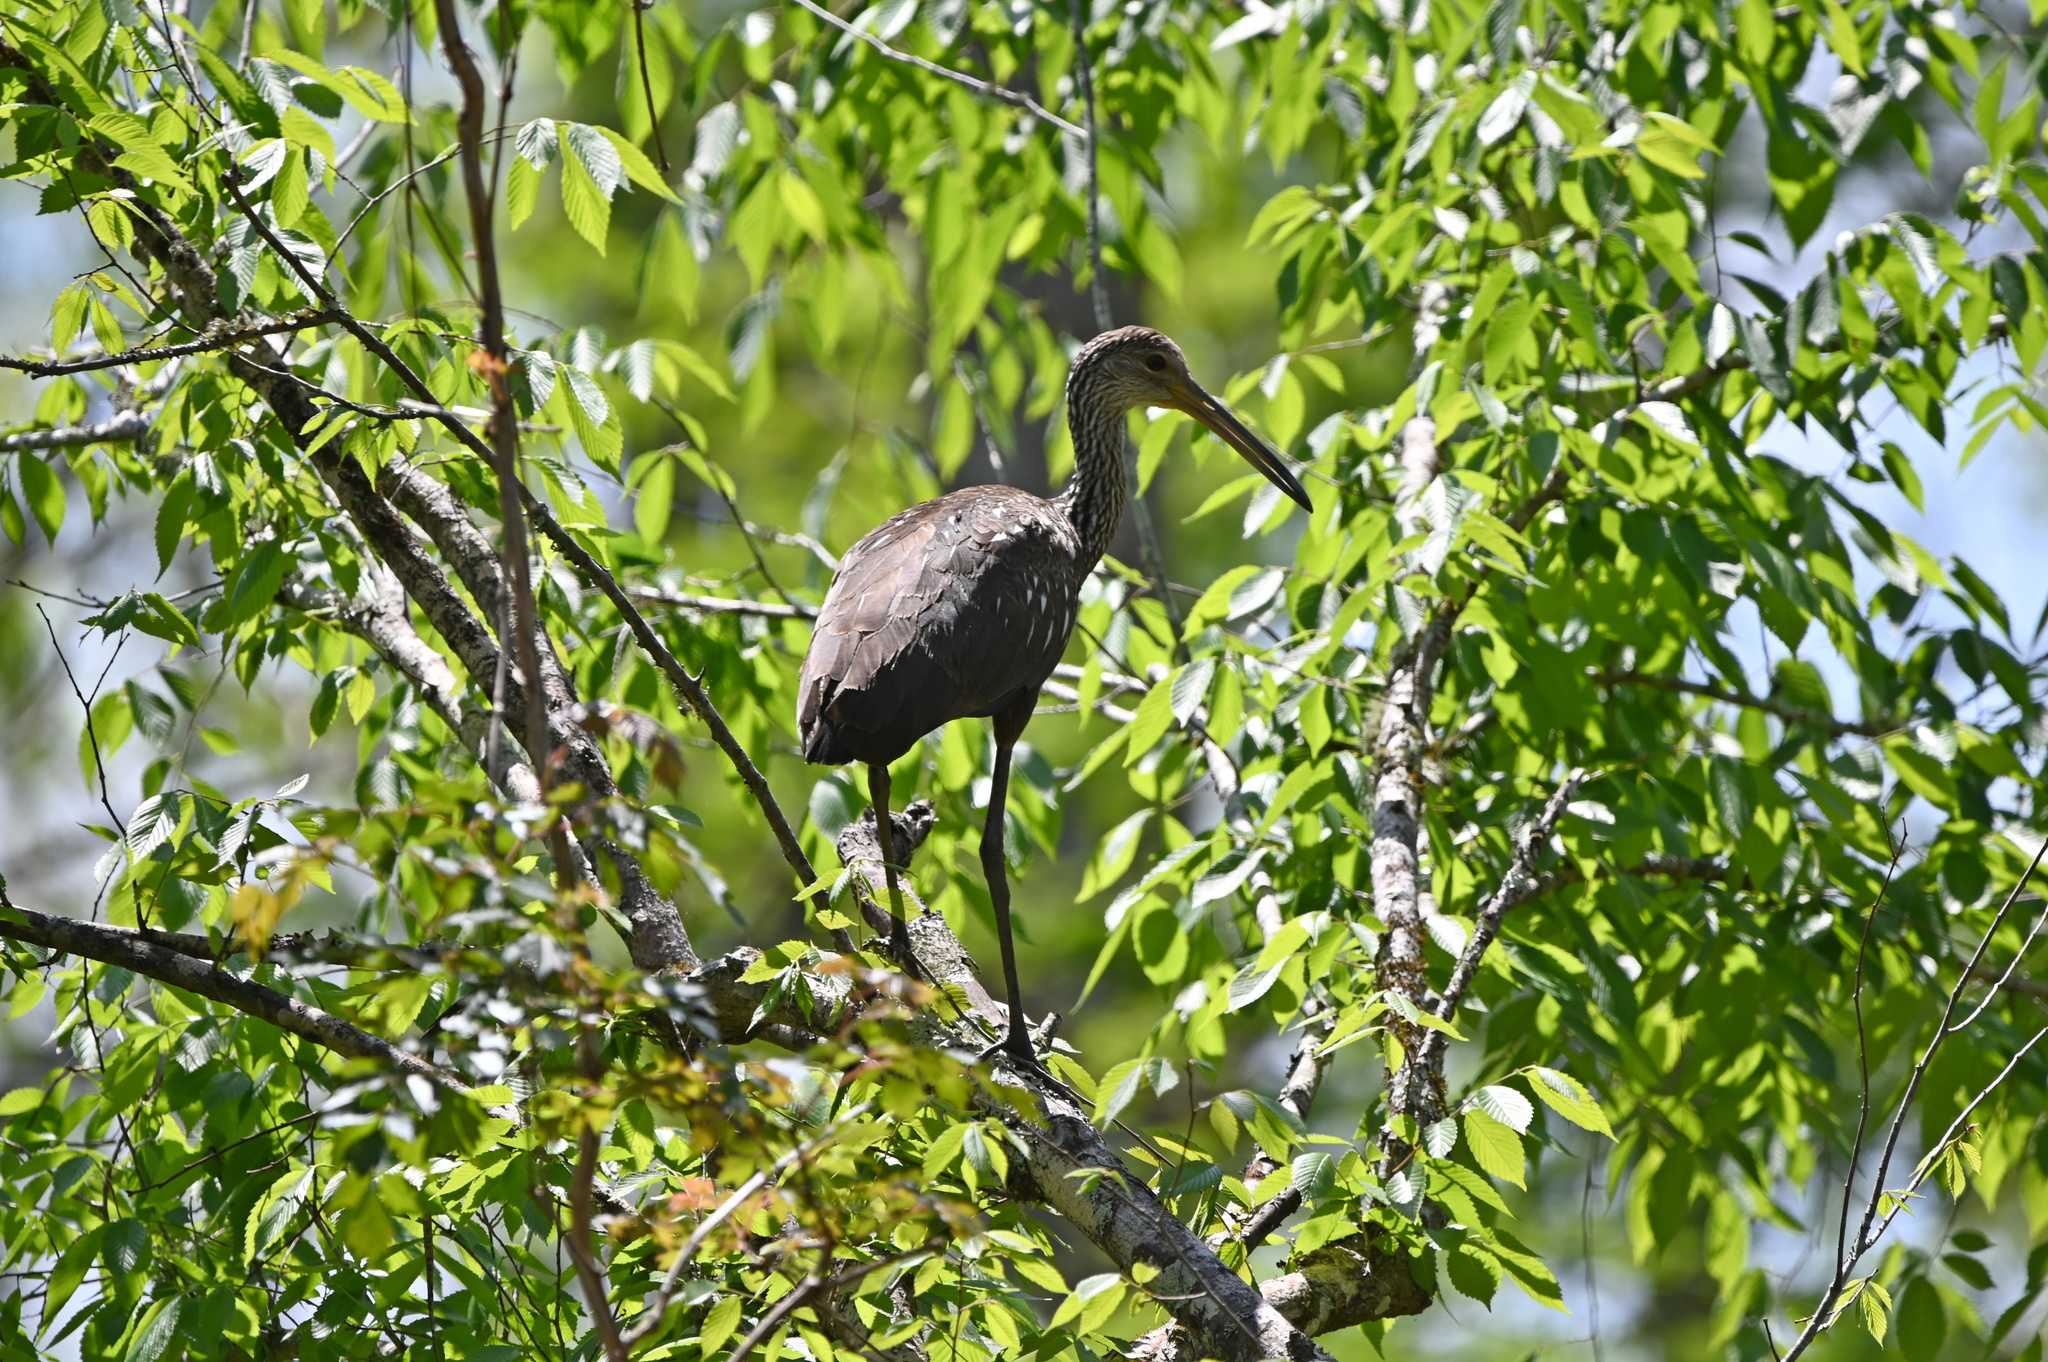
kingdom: Animalia
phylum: Chordata
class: Aves
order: Gruiformes
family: Aramidae
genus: Aramus
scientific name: Aramus guarauna
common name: Limpkin
